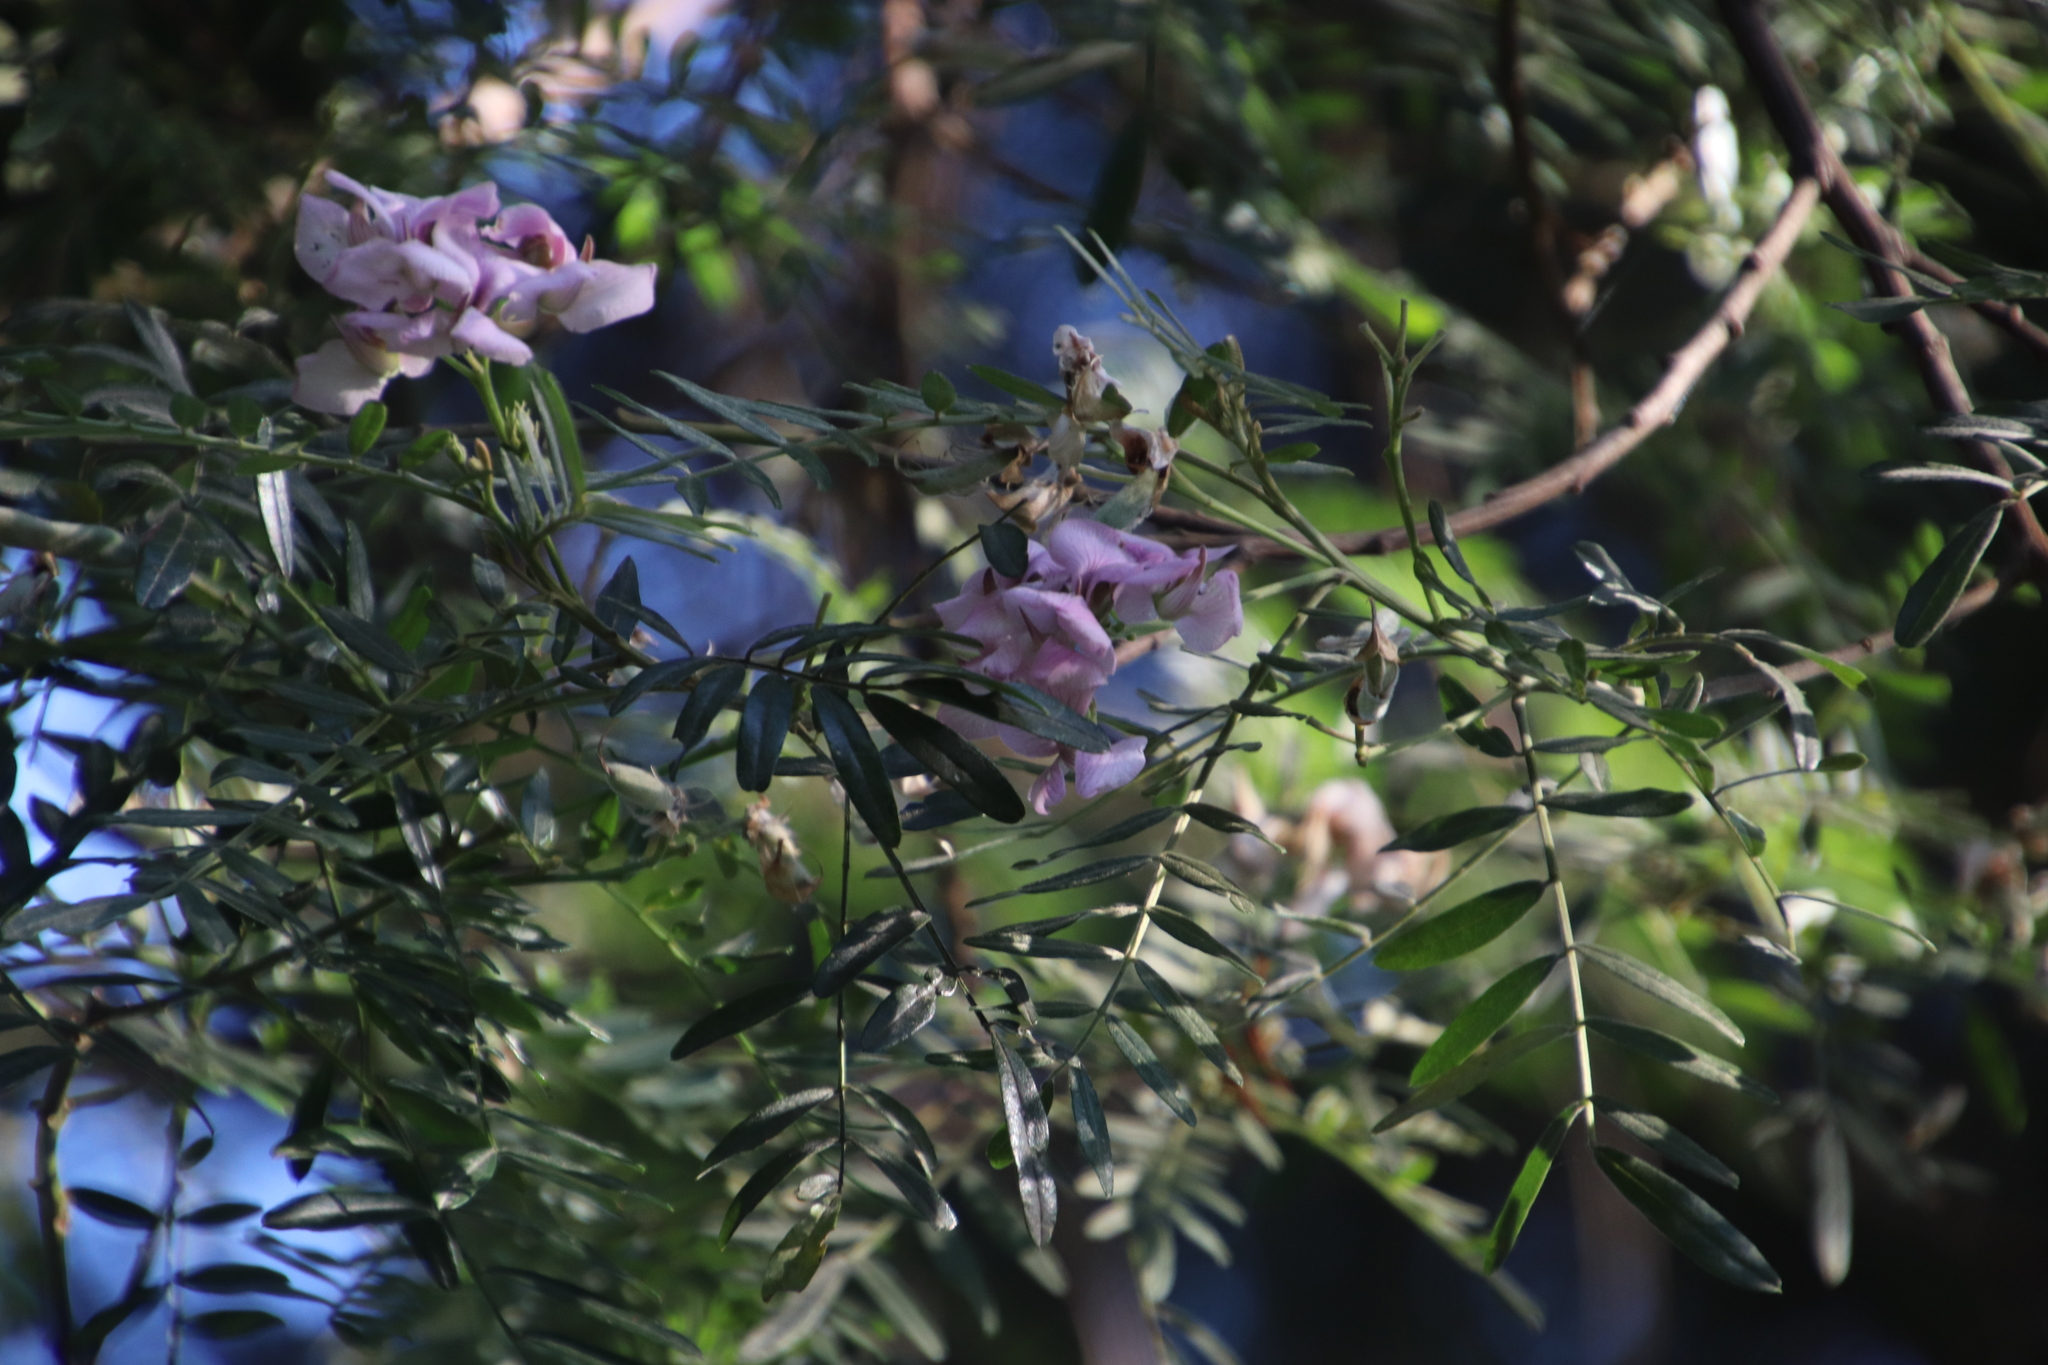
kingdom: Plantae
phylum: Tracheophyta
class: Magnoliopsida
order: Fabales
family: Fabaceae
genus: Virgilia
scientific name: Virgilia oroboides
